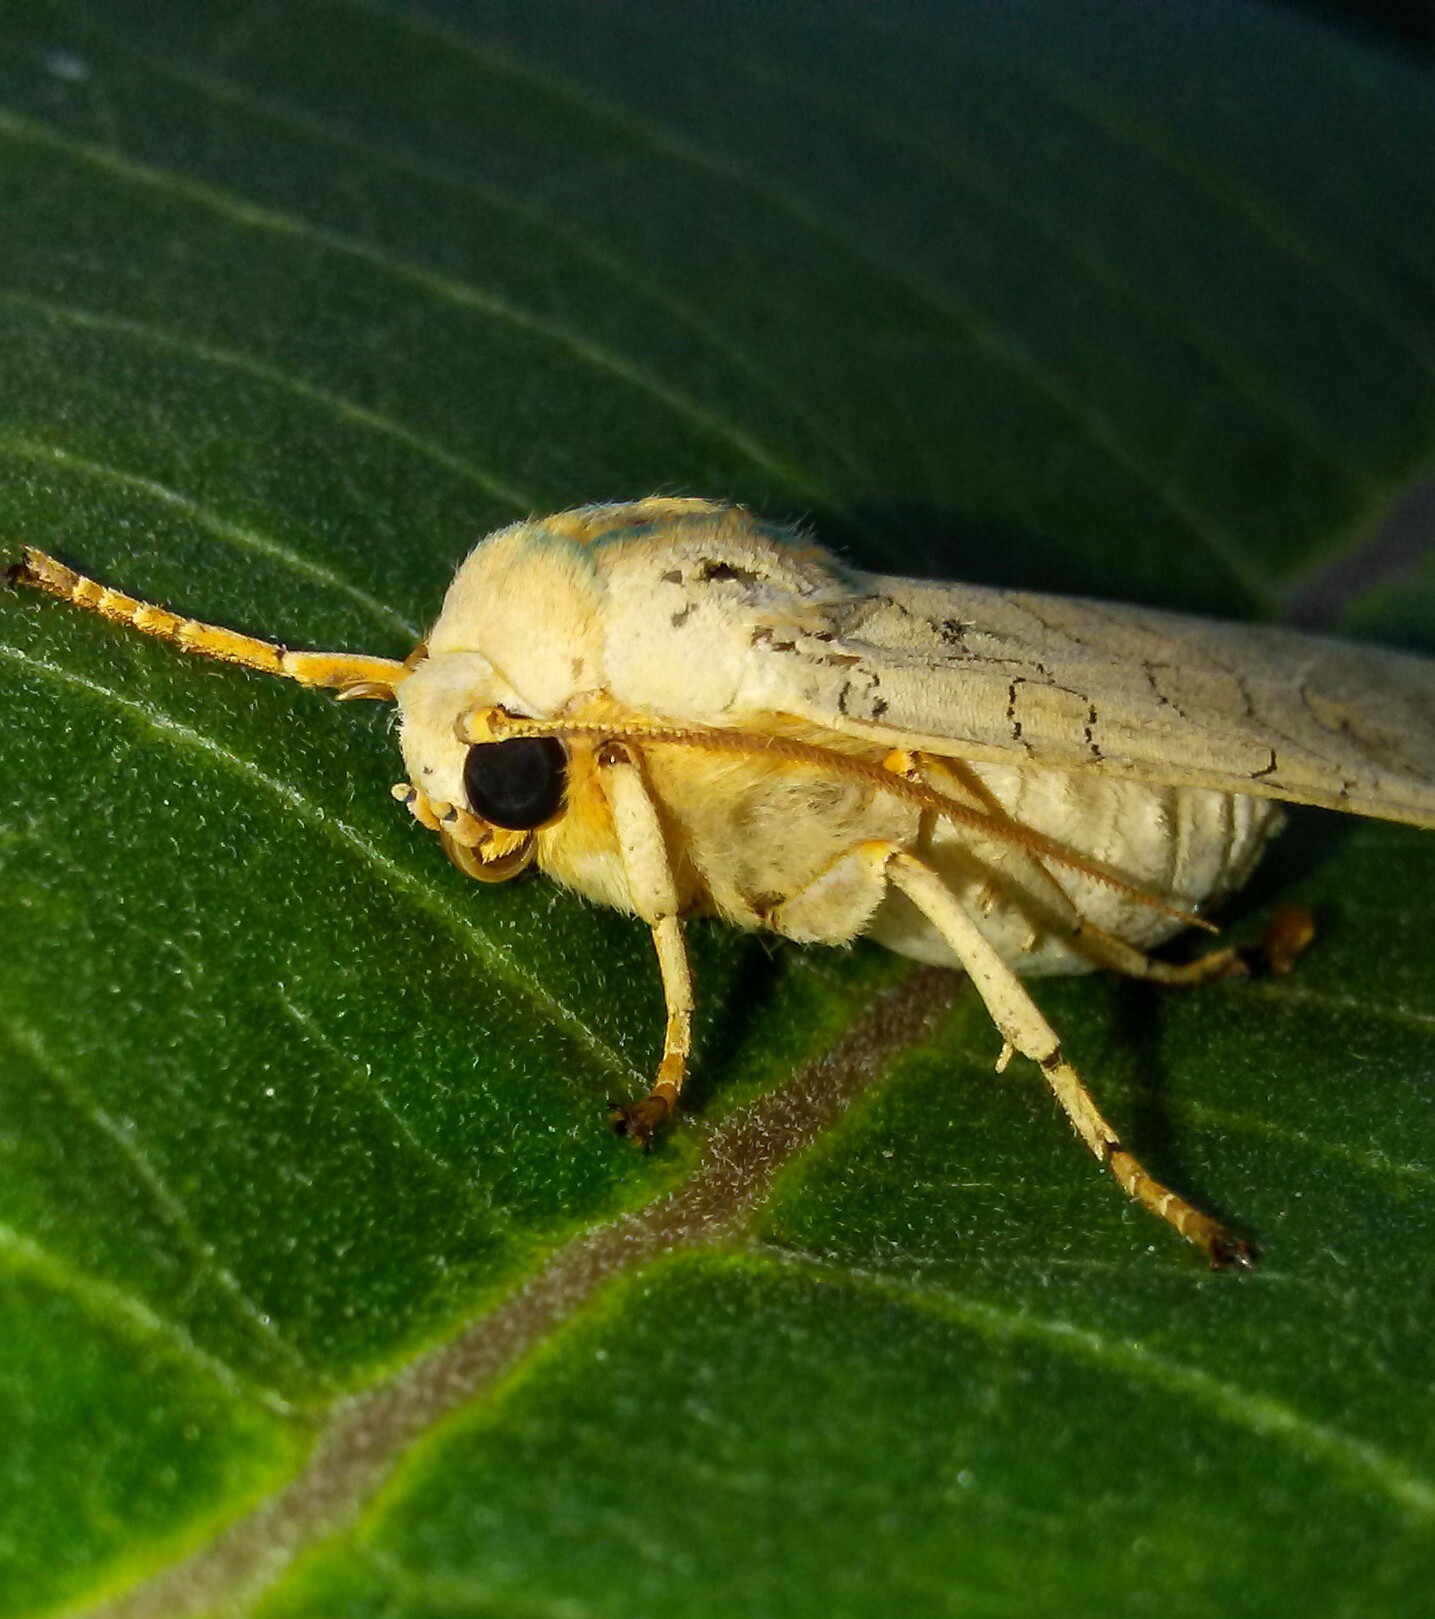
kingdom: Animalia
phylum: Arthropoda
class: Insecta
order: Lepidoptera
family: Erebidae
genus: Halysidota
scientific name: Halysidota
